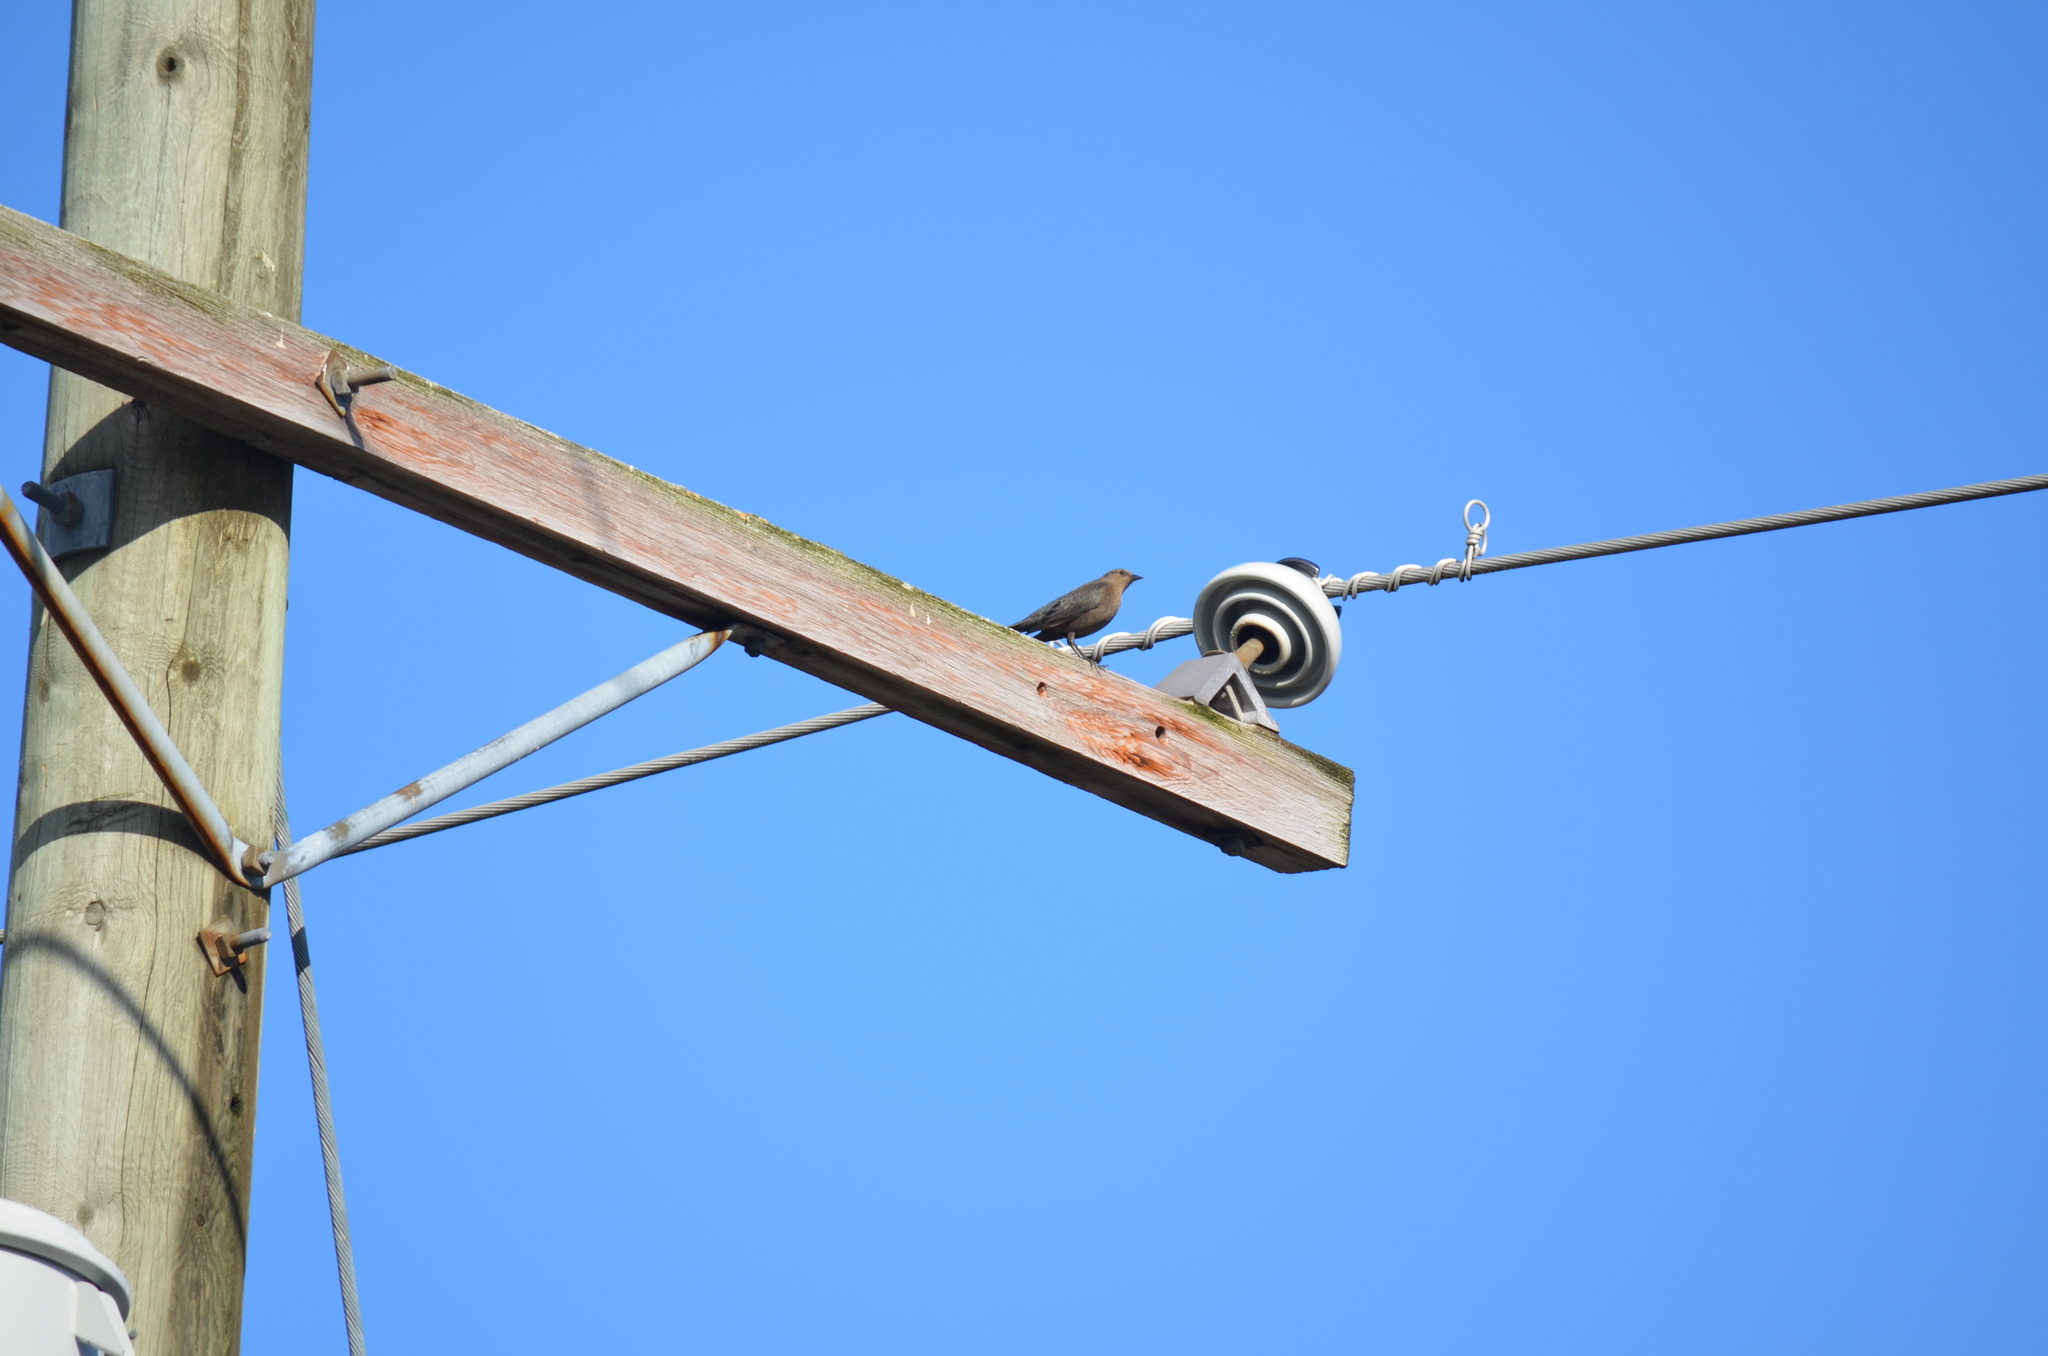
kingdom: Animalia
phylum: Chordata
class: Aves
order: Passeriformes
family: Icteridae
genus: Euphagus
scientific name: Euphagus cyanocephalus
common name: Brewer's blackbird
